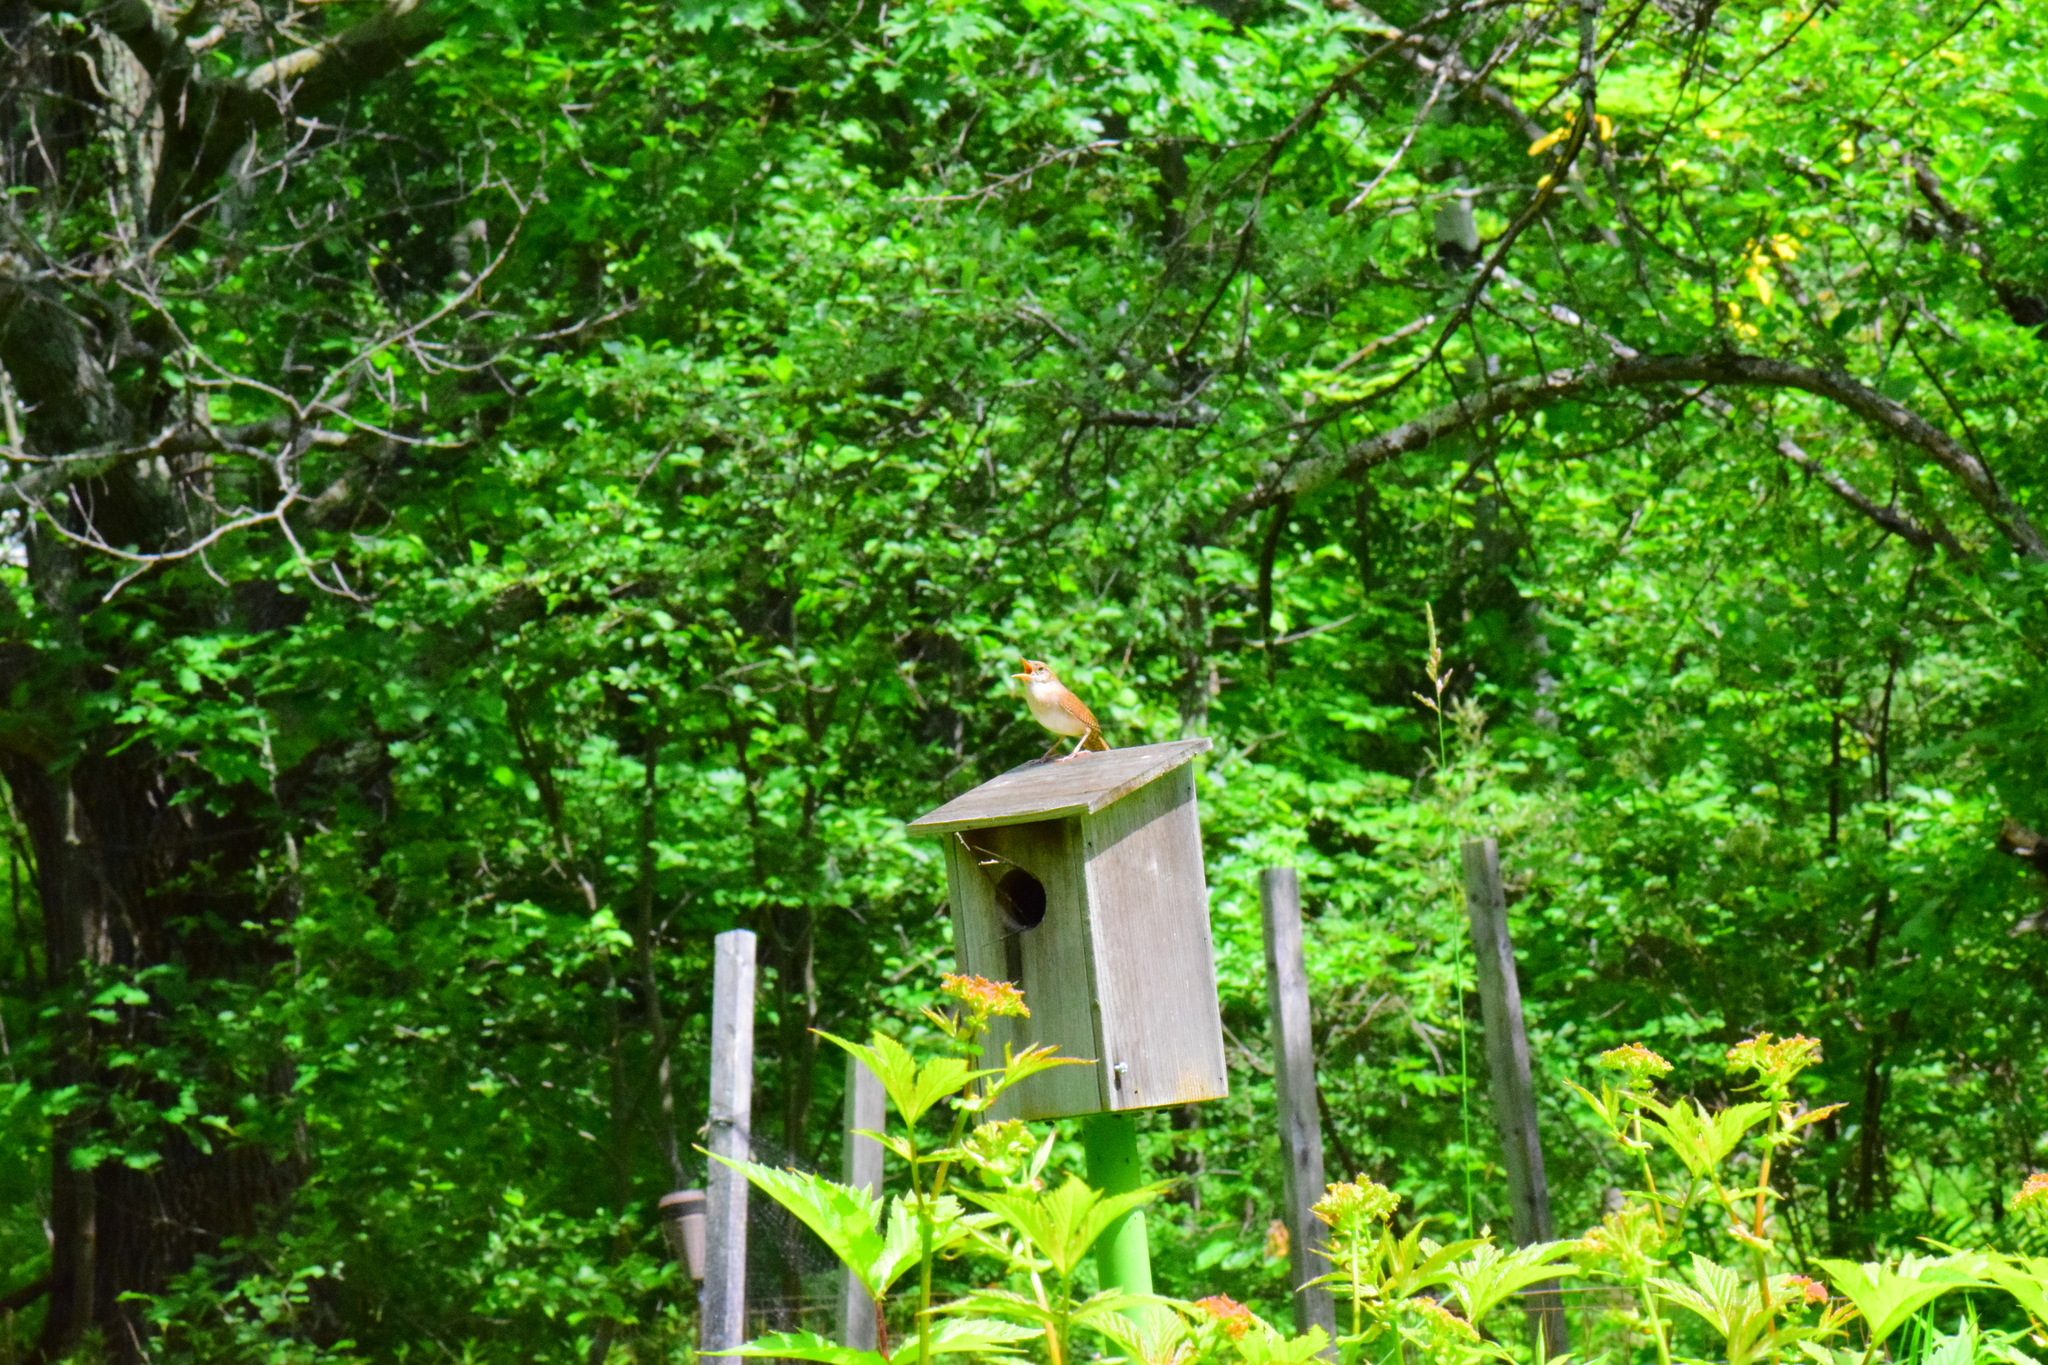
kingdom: Animalia
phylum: Chordata
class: Aves
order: Passeriformes
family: Troglodytidae
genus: Troglodytes
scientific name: Troglodytes aedon
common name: House wren
